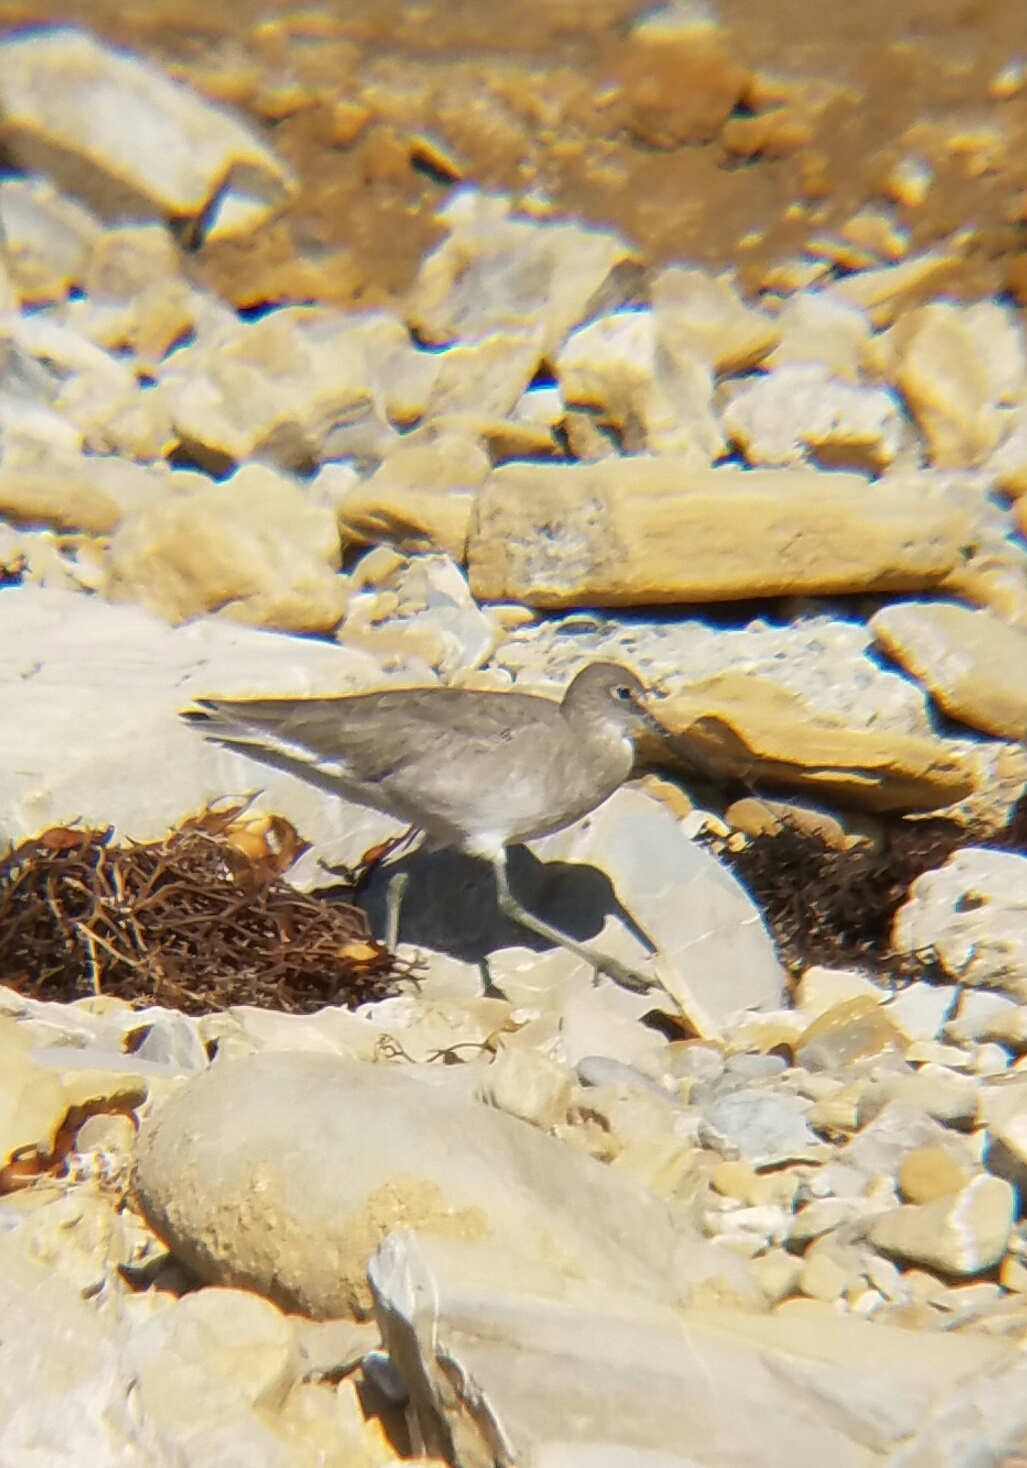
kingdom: Animalia
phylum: Chordata
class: Aves
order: Charadriiformes
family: Scolopacidae
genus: Tringa
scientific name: Tringa semipalmata
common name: Willet
